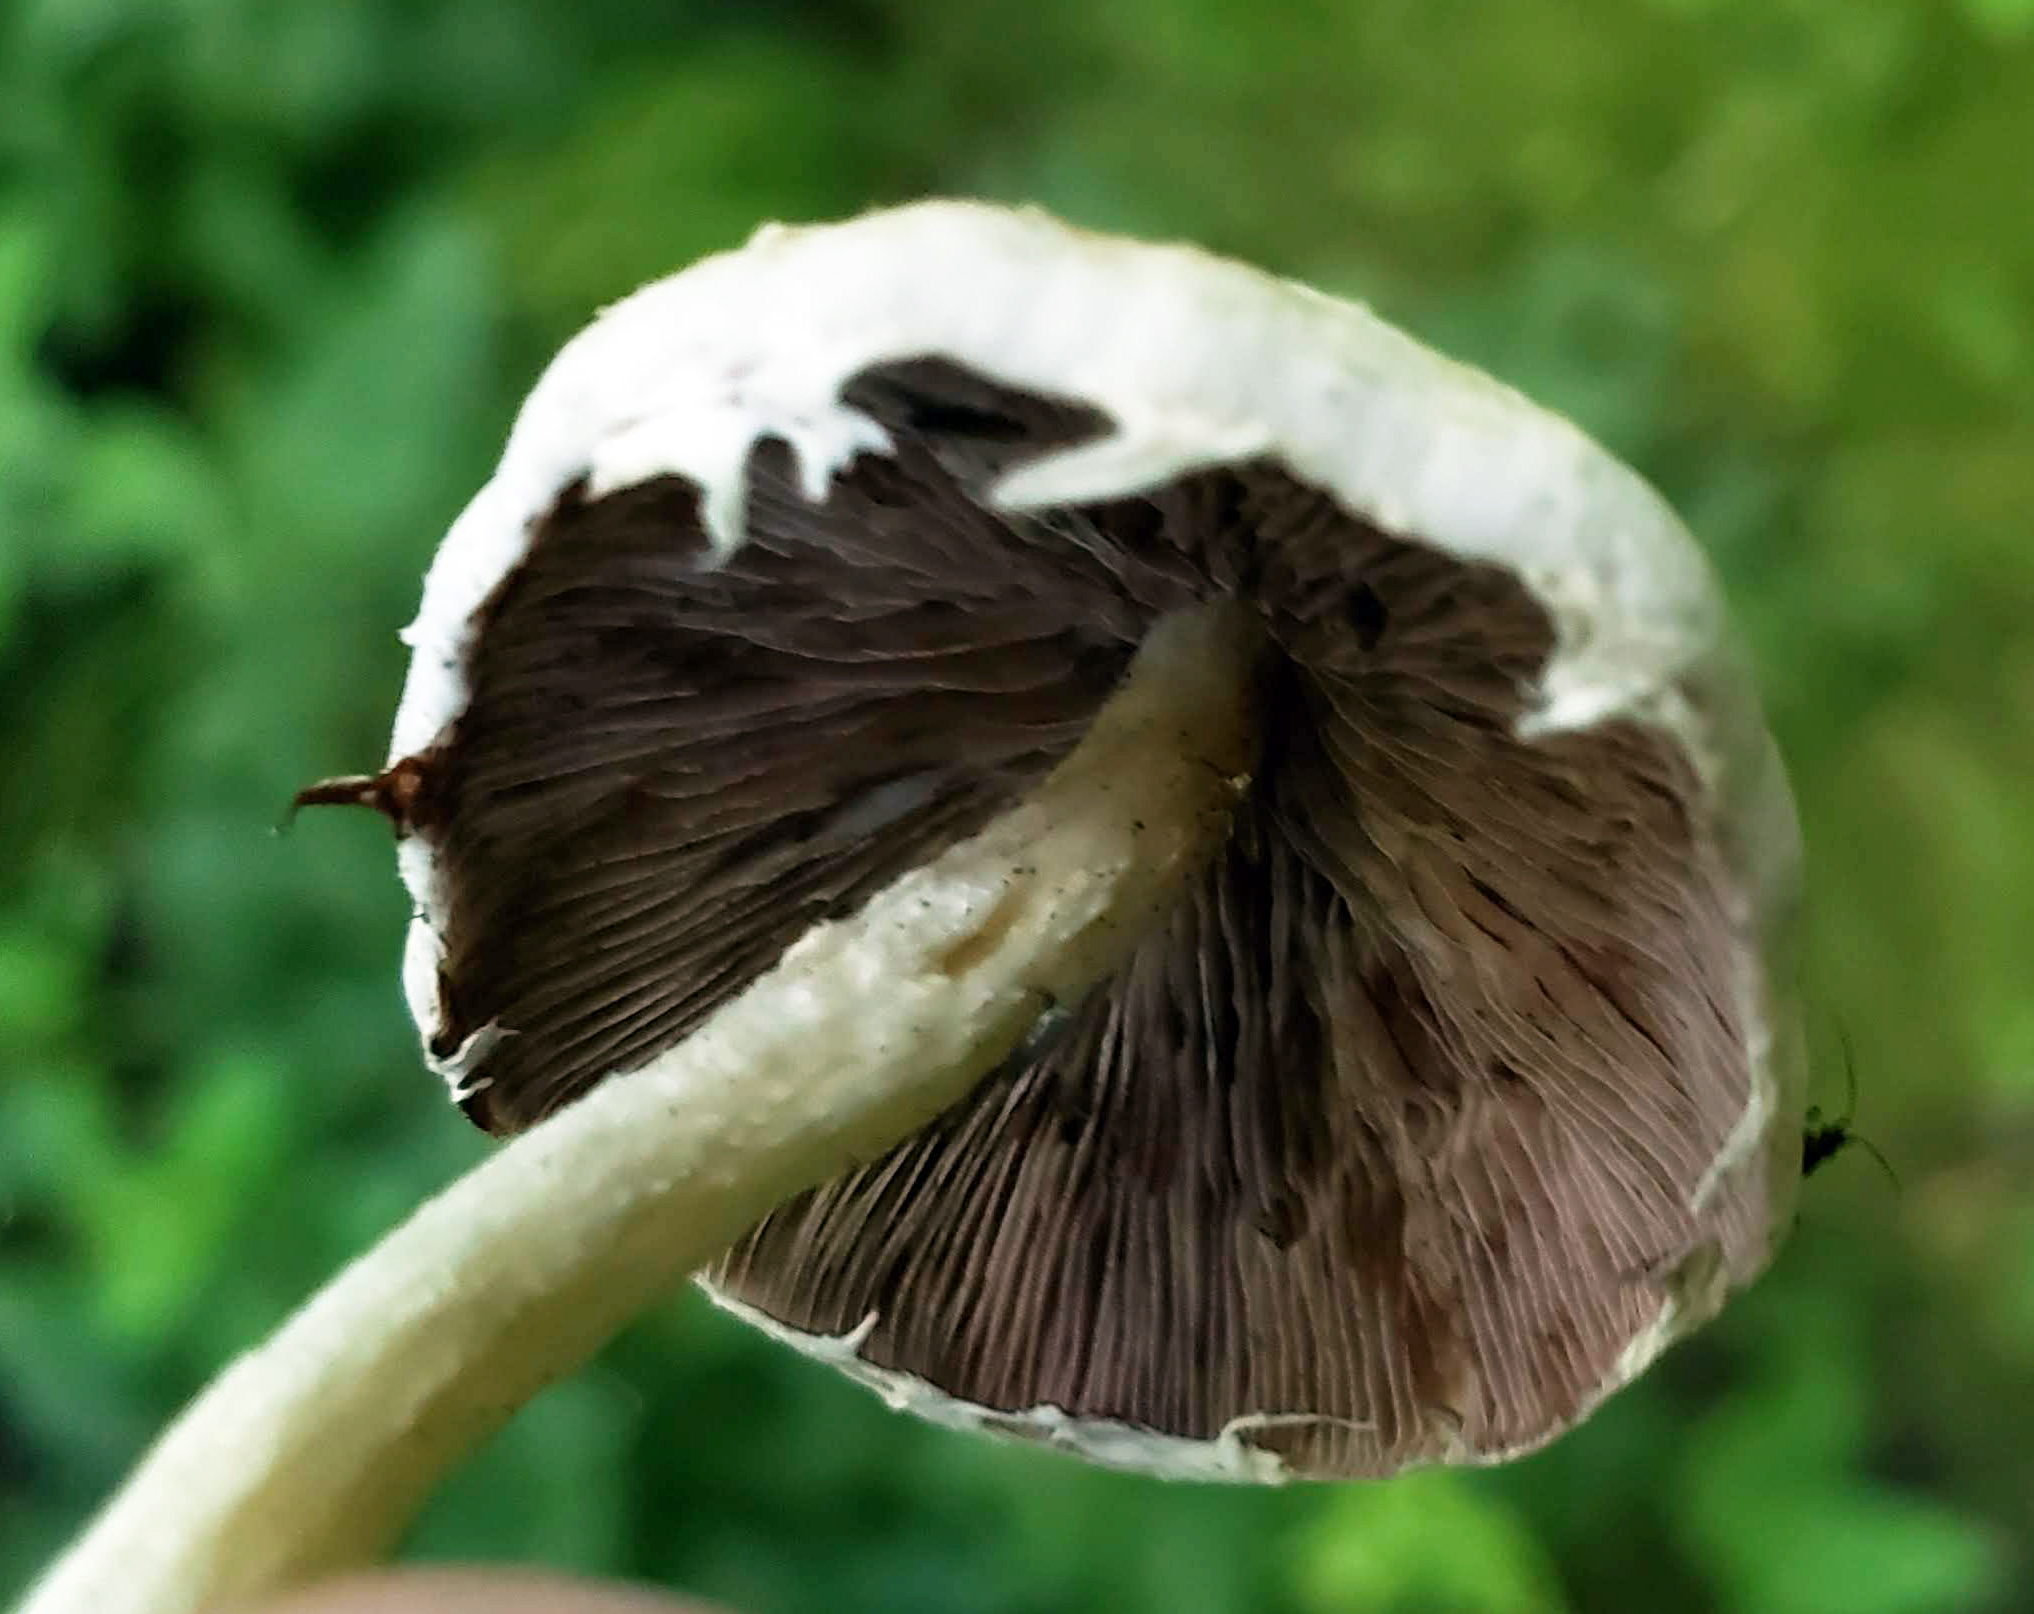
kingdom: Fungi
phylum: Basidiomycota
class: Agaricomycetes
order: Agaricales
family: Psathyrellaceae
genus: Candolleomyces
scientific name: Candolleomyces candolleanus
